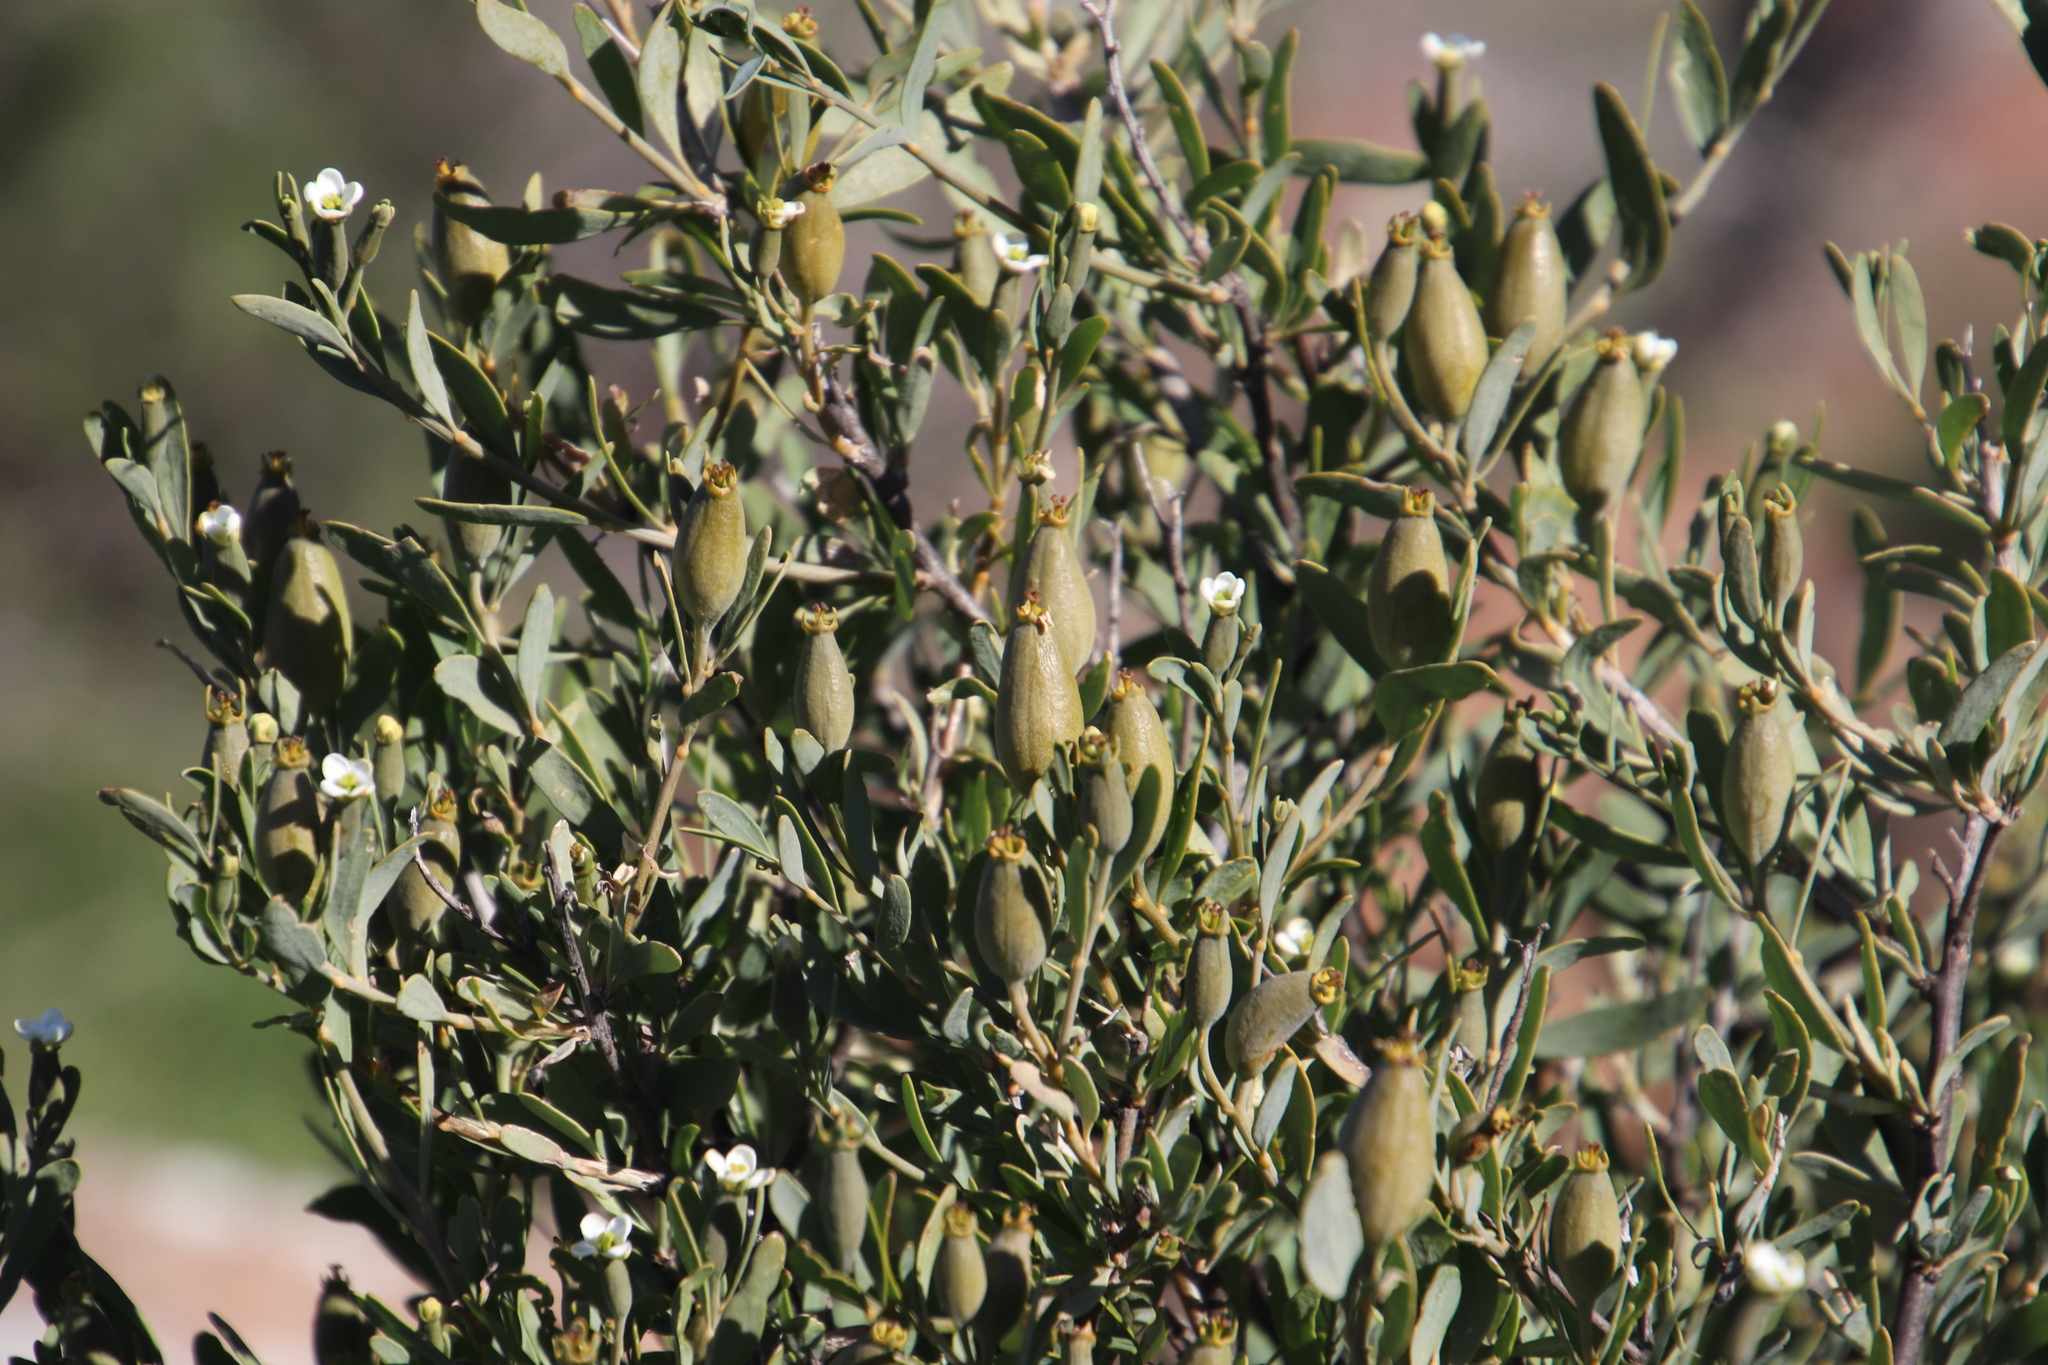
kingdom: Plantae
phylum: Tracheophyta
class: Magnoliopsida
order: Solanales
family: Montiniaceae
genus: Montinia
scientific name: Montinia caryophyllacea
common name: Wild clove-bush
